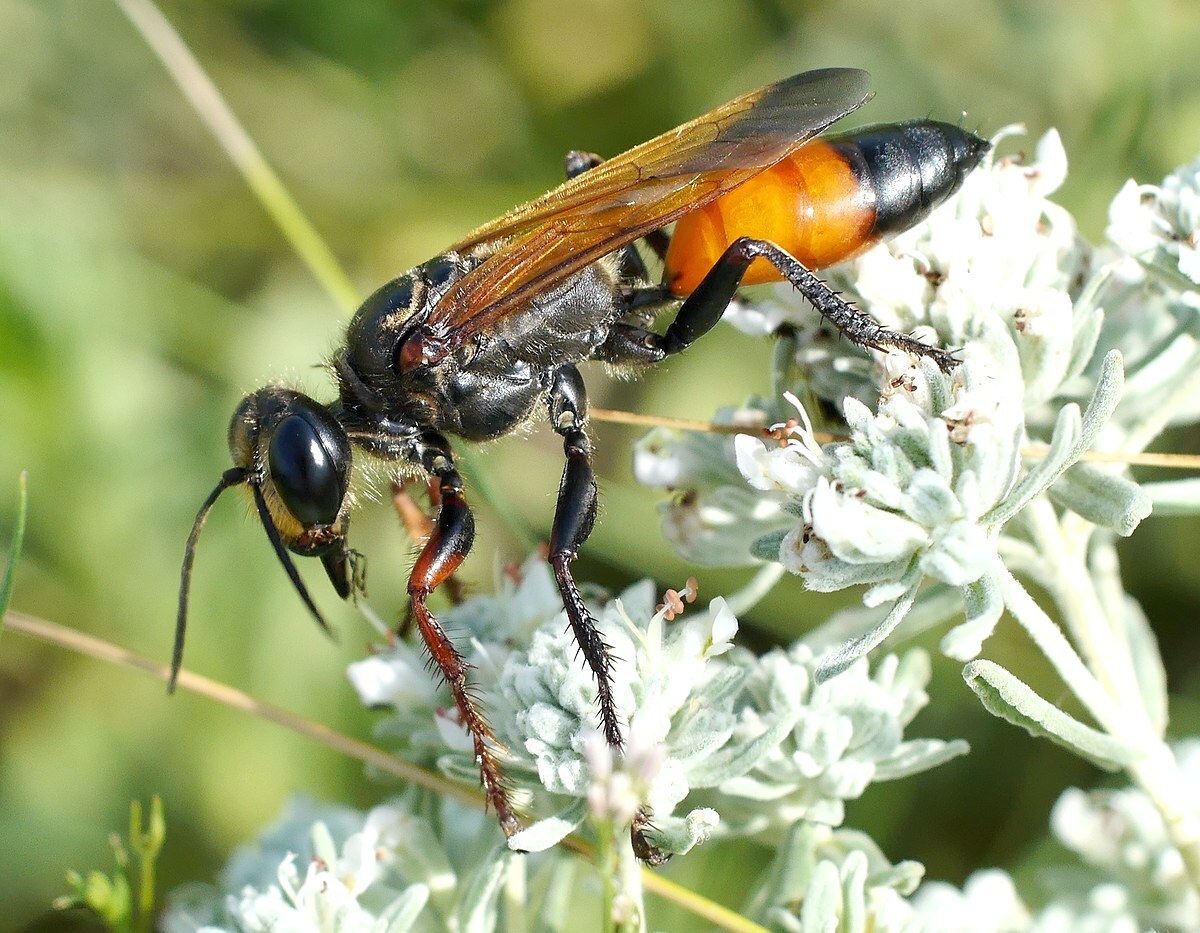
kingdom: Animalia
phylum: Arthropoda
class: Insecta
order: Hymenoptera
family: Sphecidae
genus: Sphex
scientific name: Sphex flavipennis
